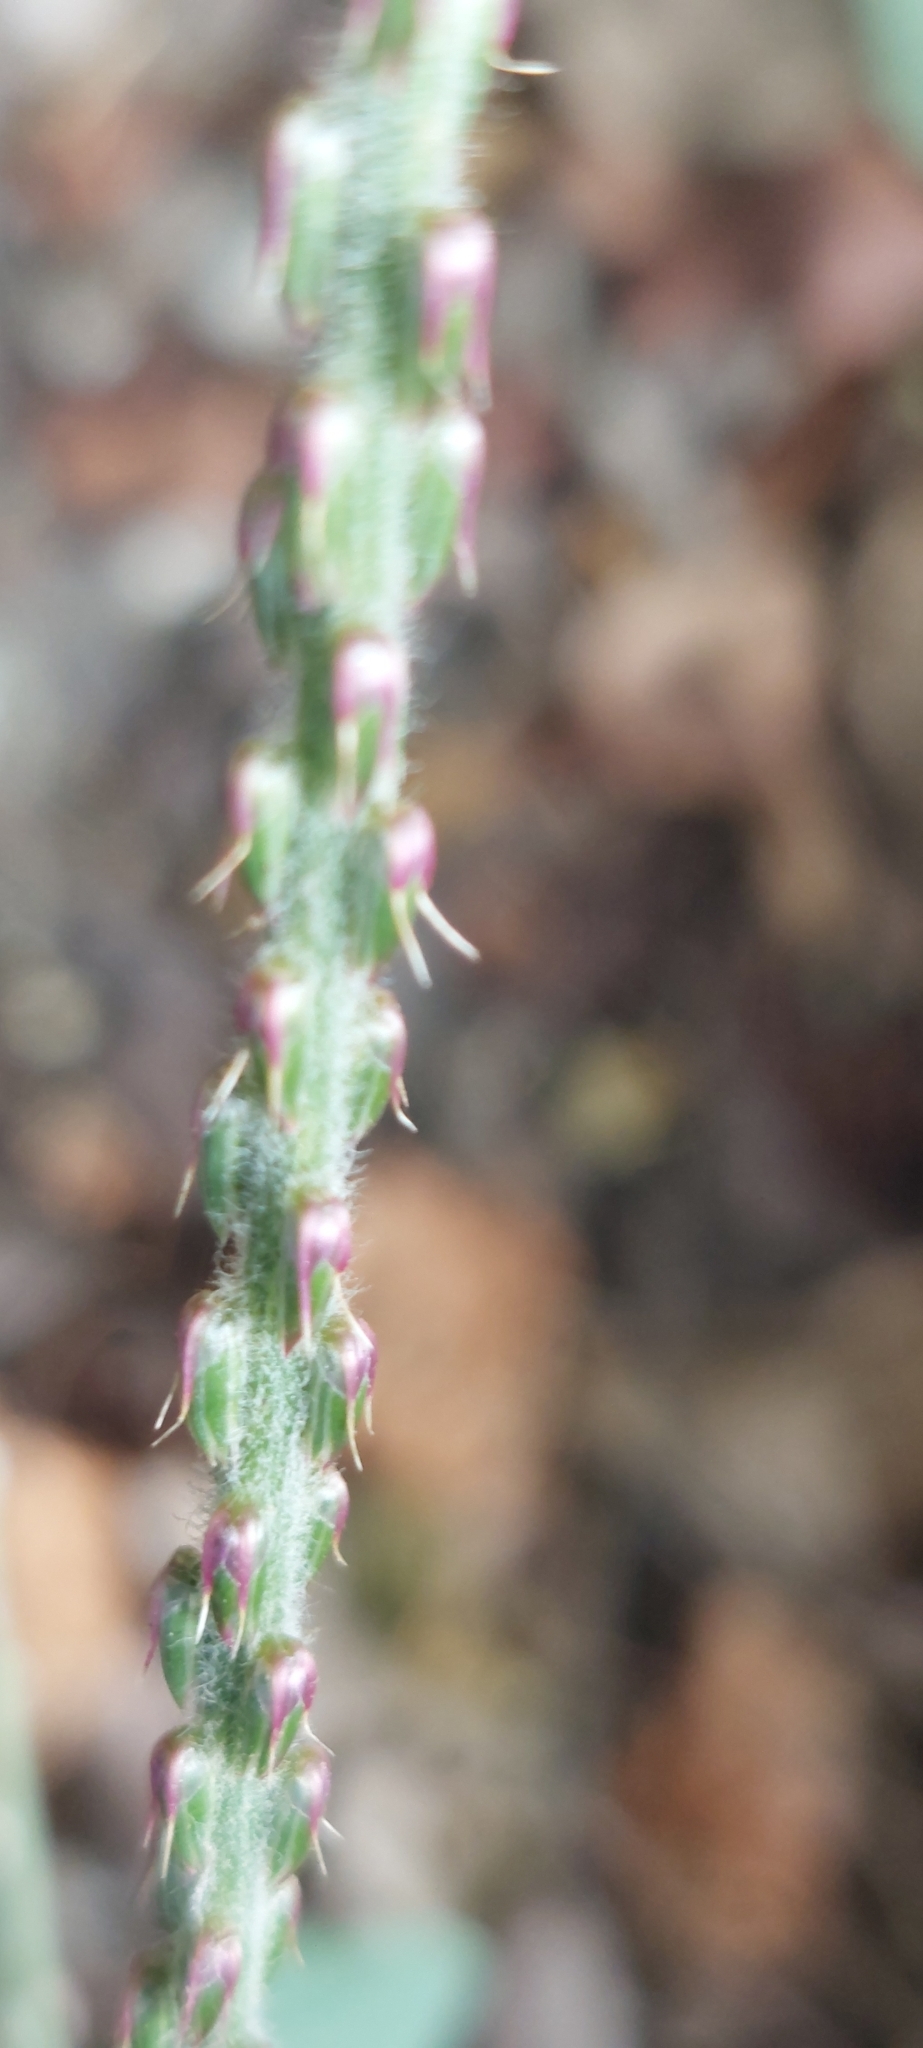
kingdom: Plantae
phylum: Tracheophyta
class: Magnoliopsida
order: Caryophyllales
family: Amaranthaceae
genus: Achyranthes
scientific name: Achyranthes aspera
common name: Devil's horsewhip
